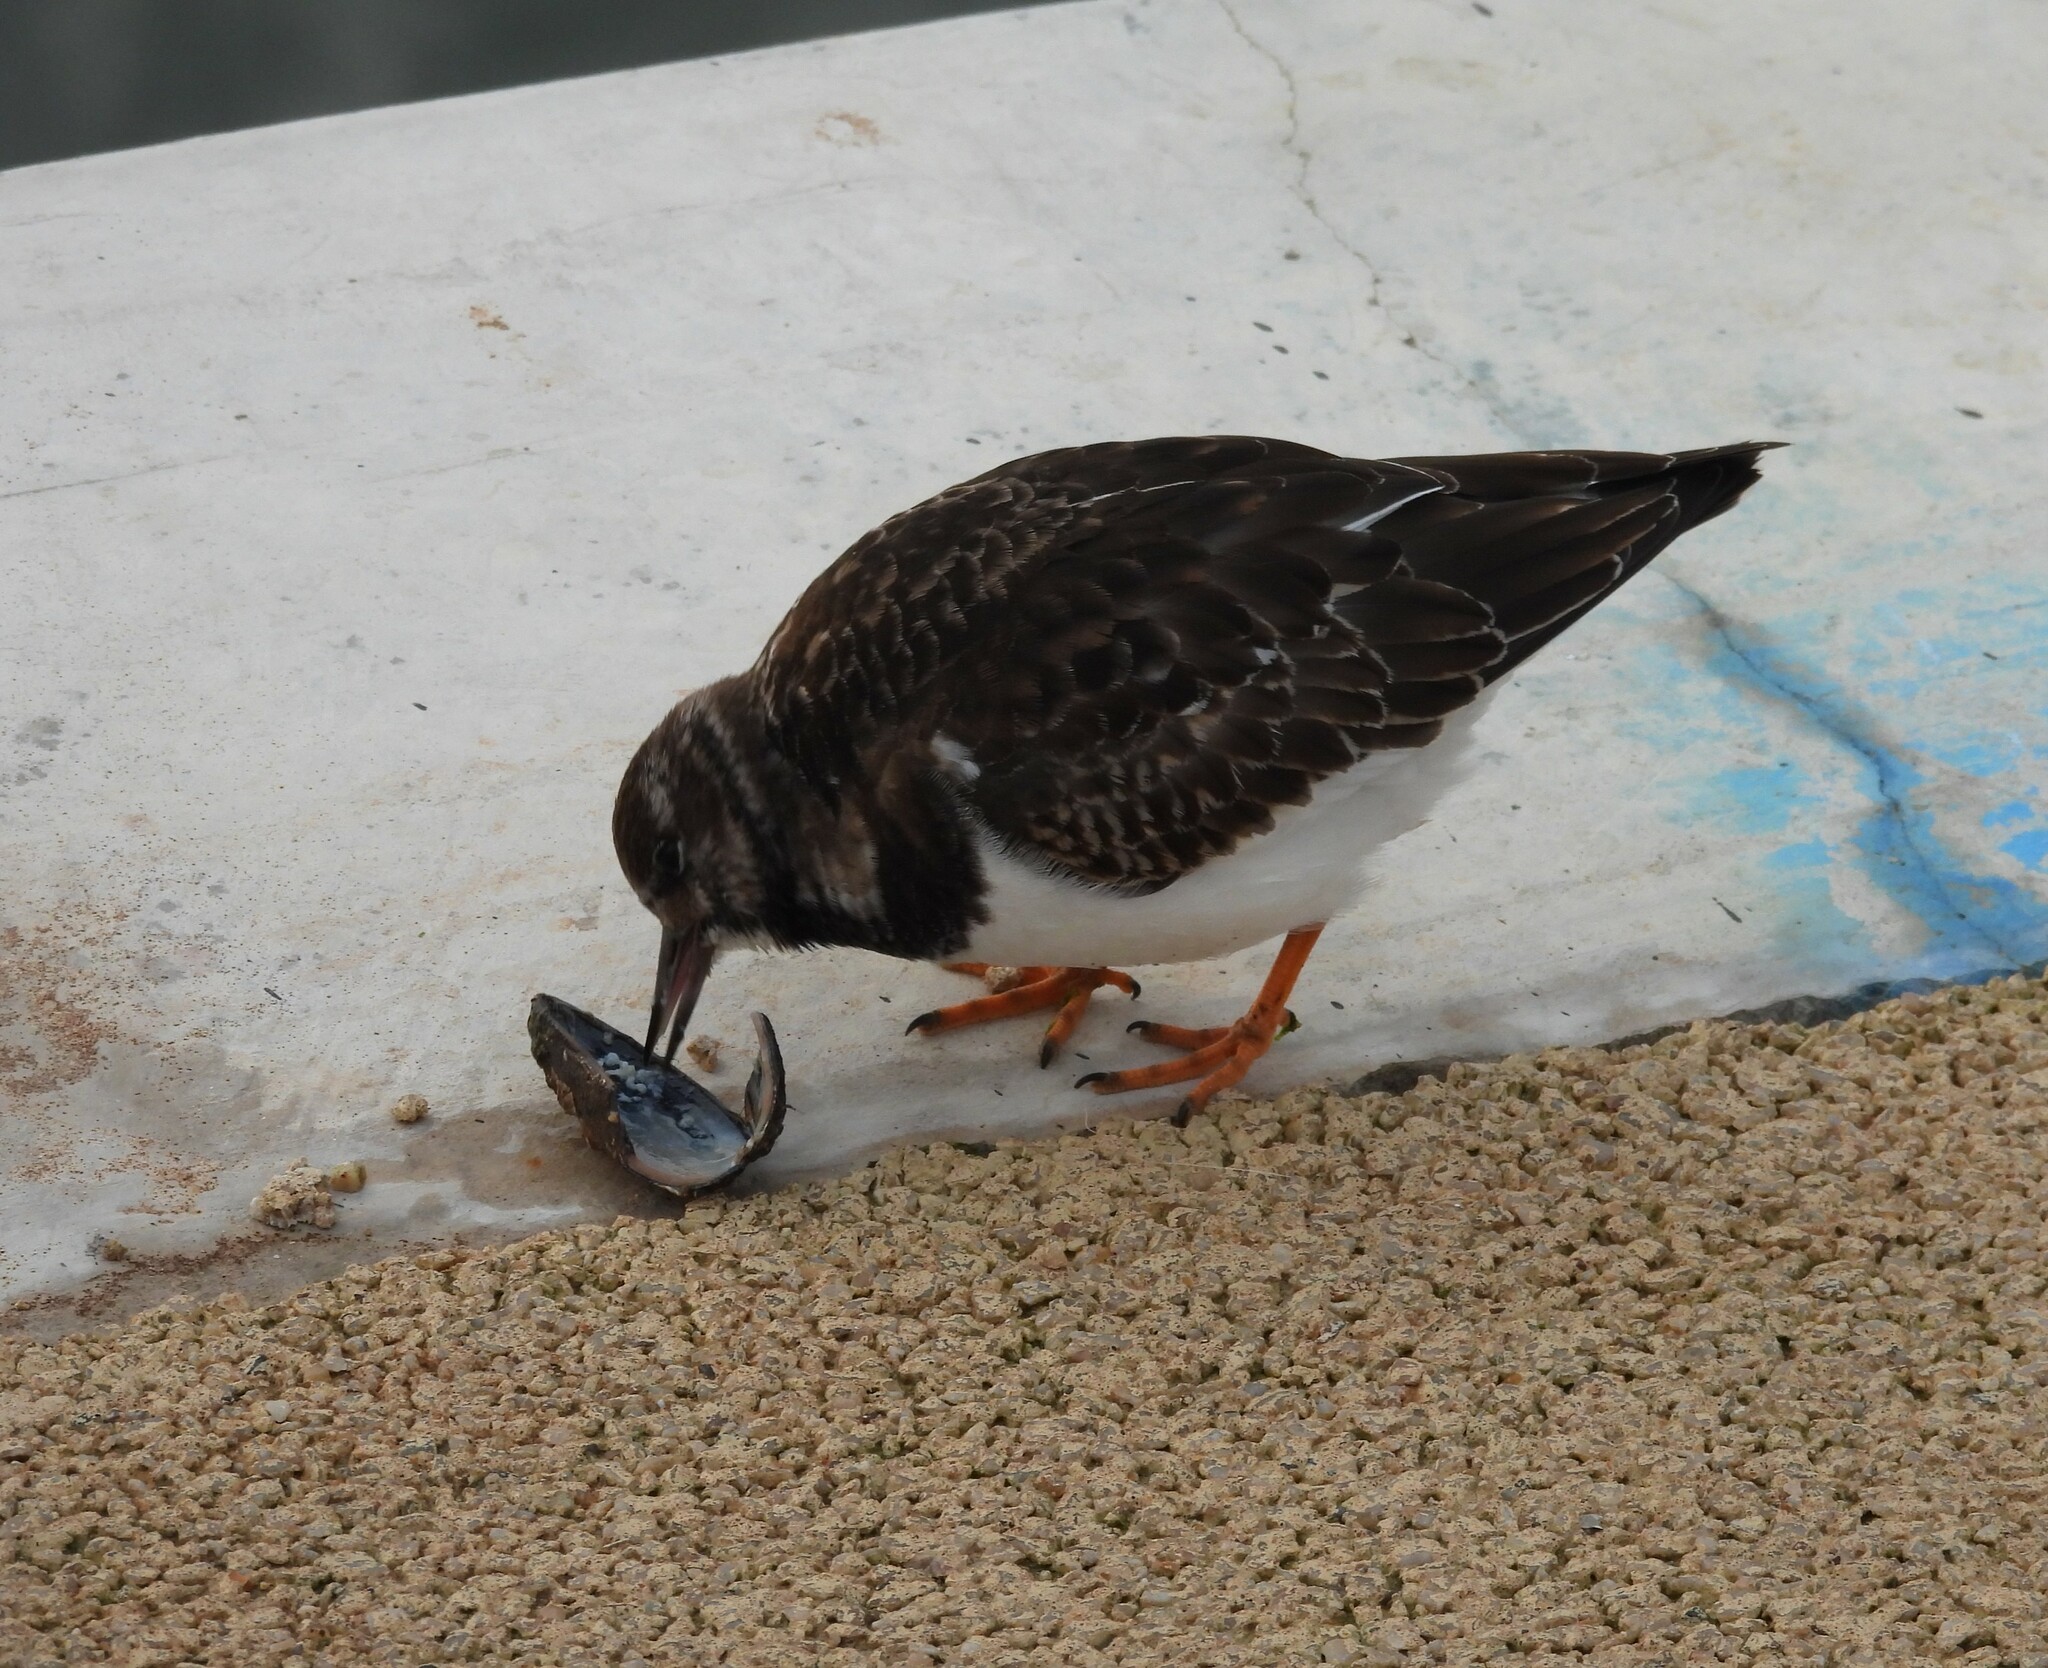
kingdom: Animalia
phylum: Chordata
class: Aves
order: Charadriiformes
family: Scolopacidae
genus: Arenaria
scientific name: Arenaria interpres
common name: Ruddy turnstone
